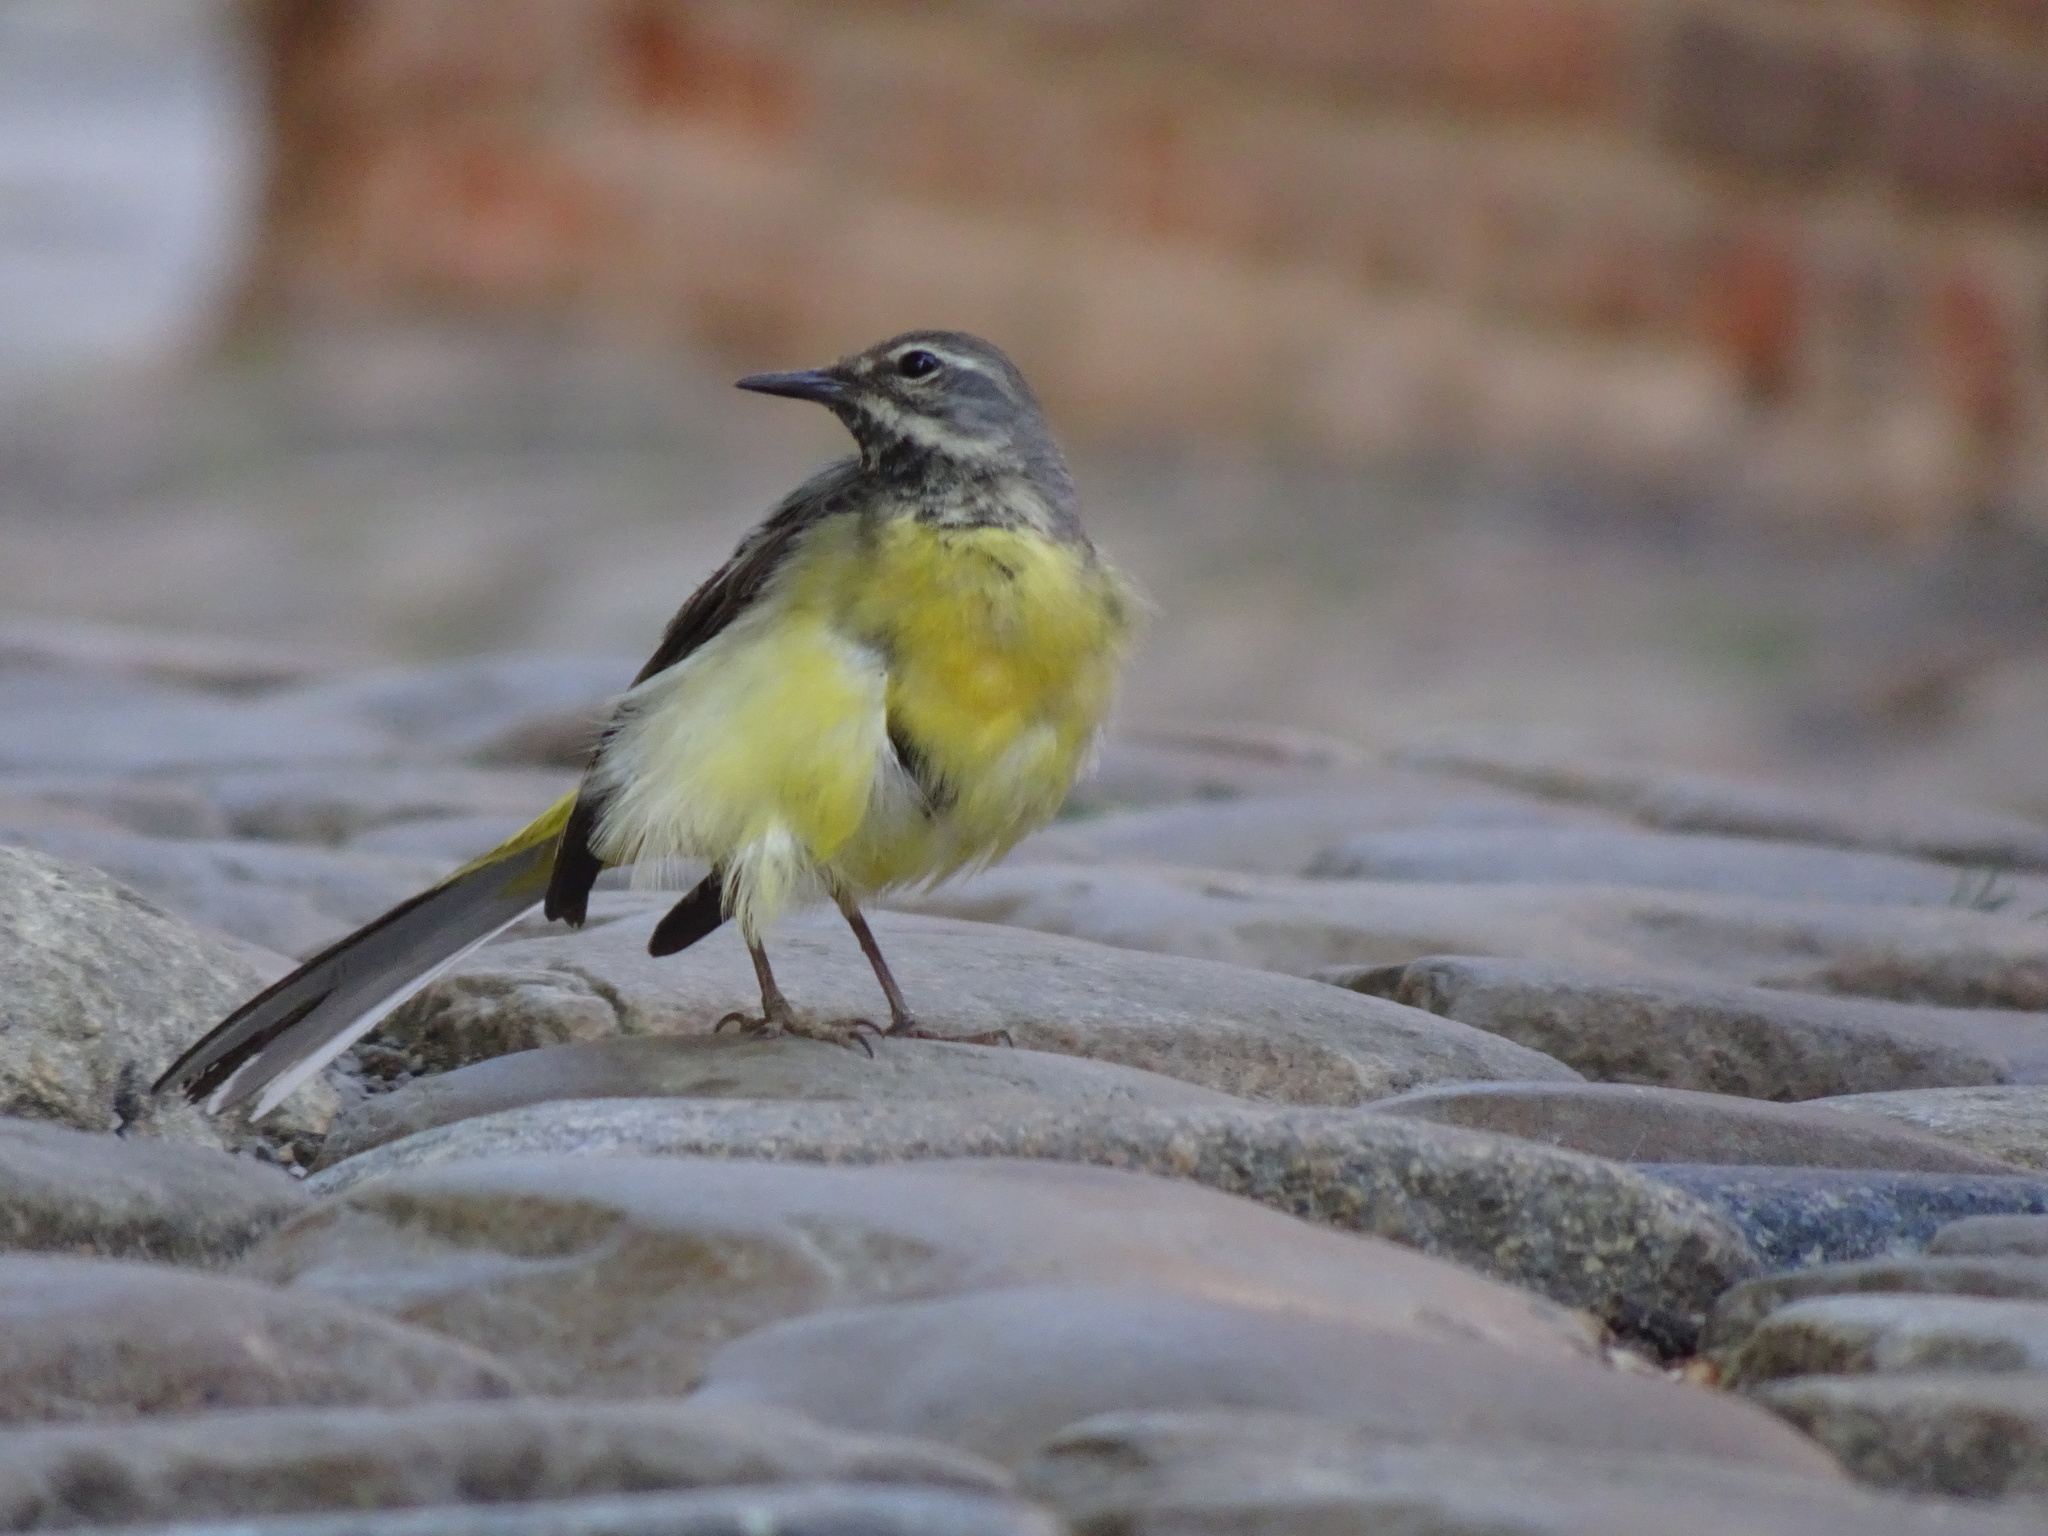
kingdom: Animalia
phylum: Chordata
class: Aves
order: Passeriformes
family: Motacillidae
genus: Motacilla
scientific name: Motacilla cinerea
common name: Grey wagtail
